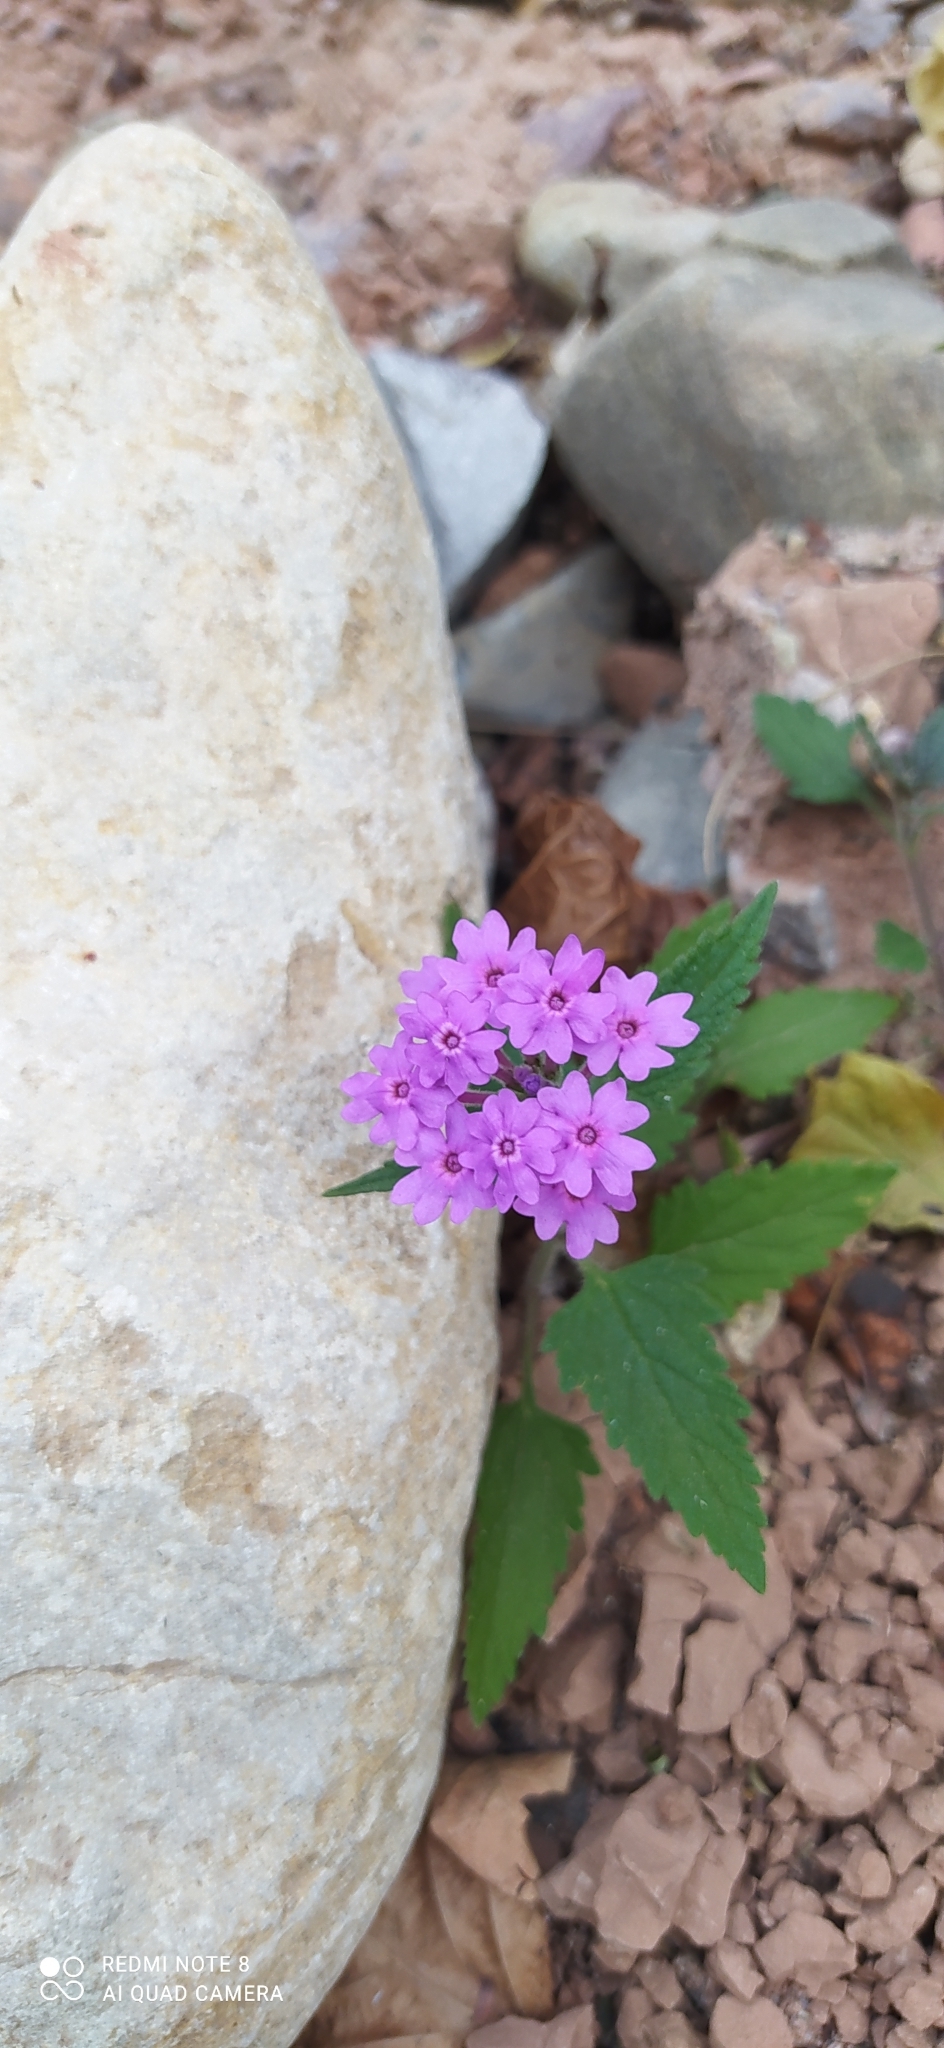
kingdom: Plantae
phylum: Tracheophyta
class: Magnoliopsida
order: Lamiales
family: Verbenaceae
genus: Verbena
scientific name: Verbena scrobiculata
